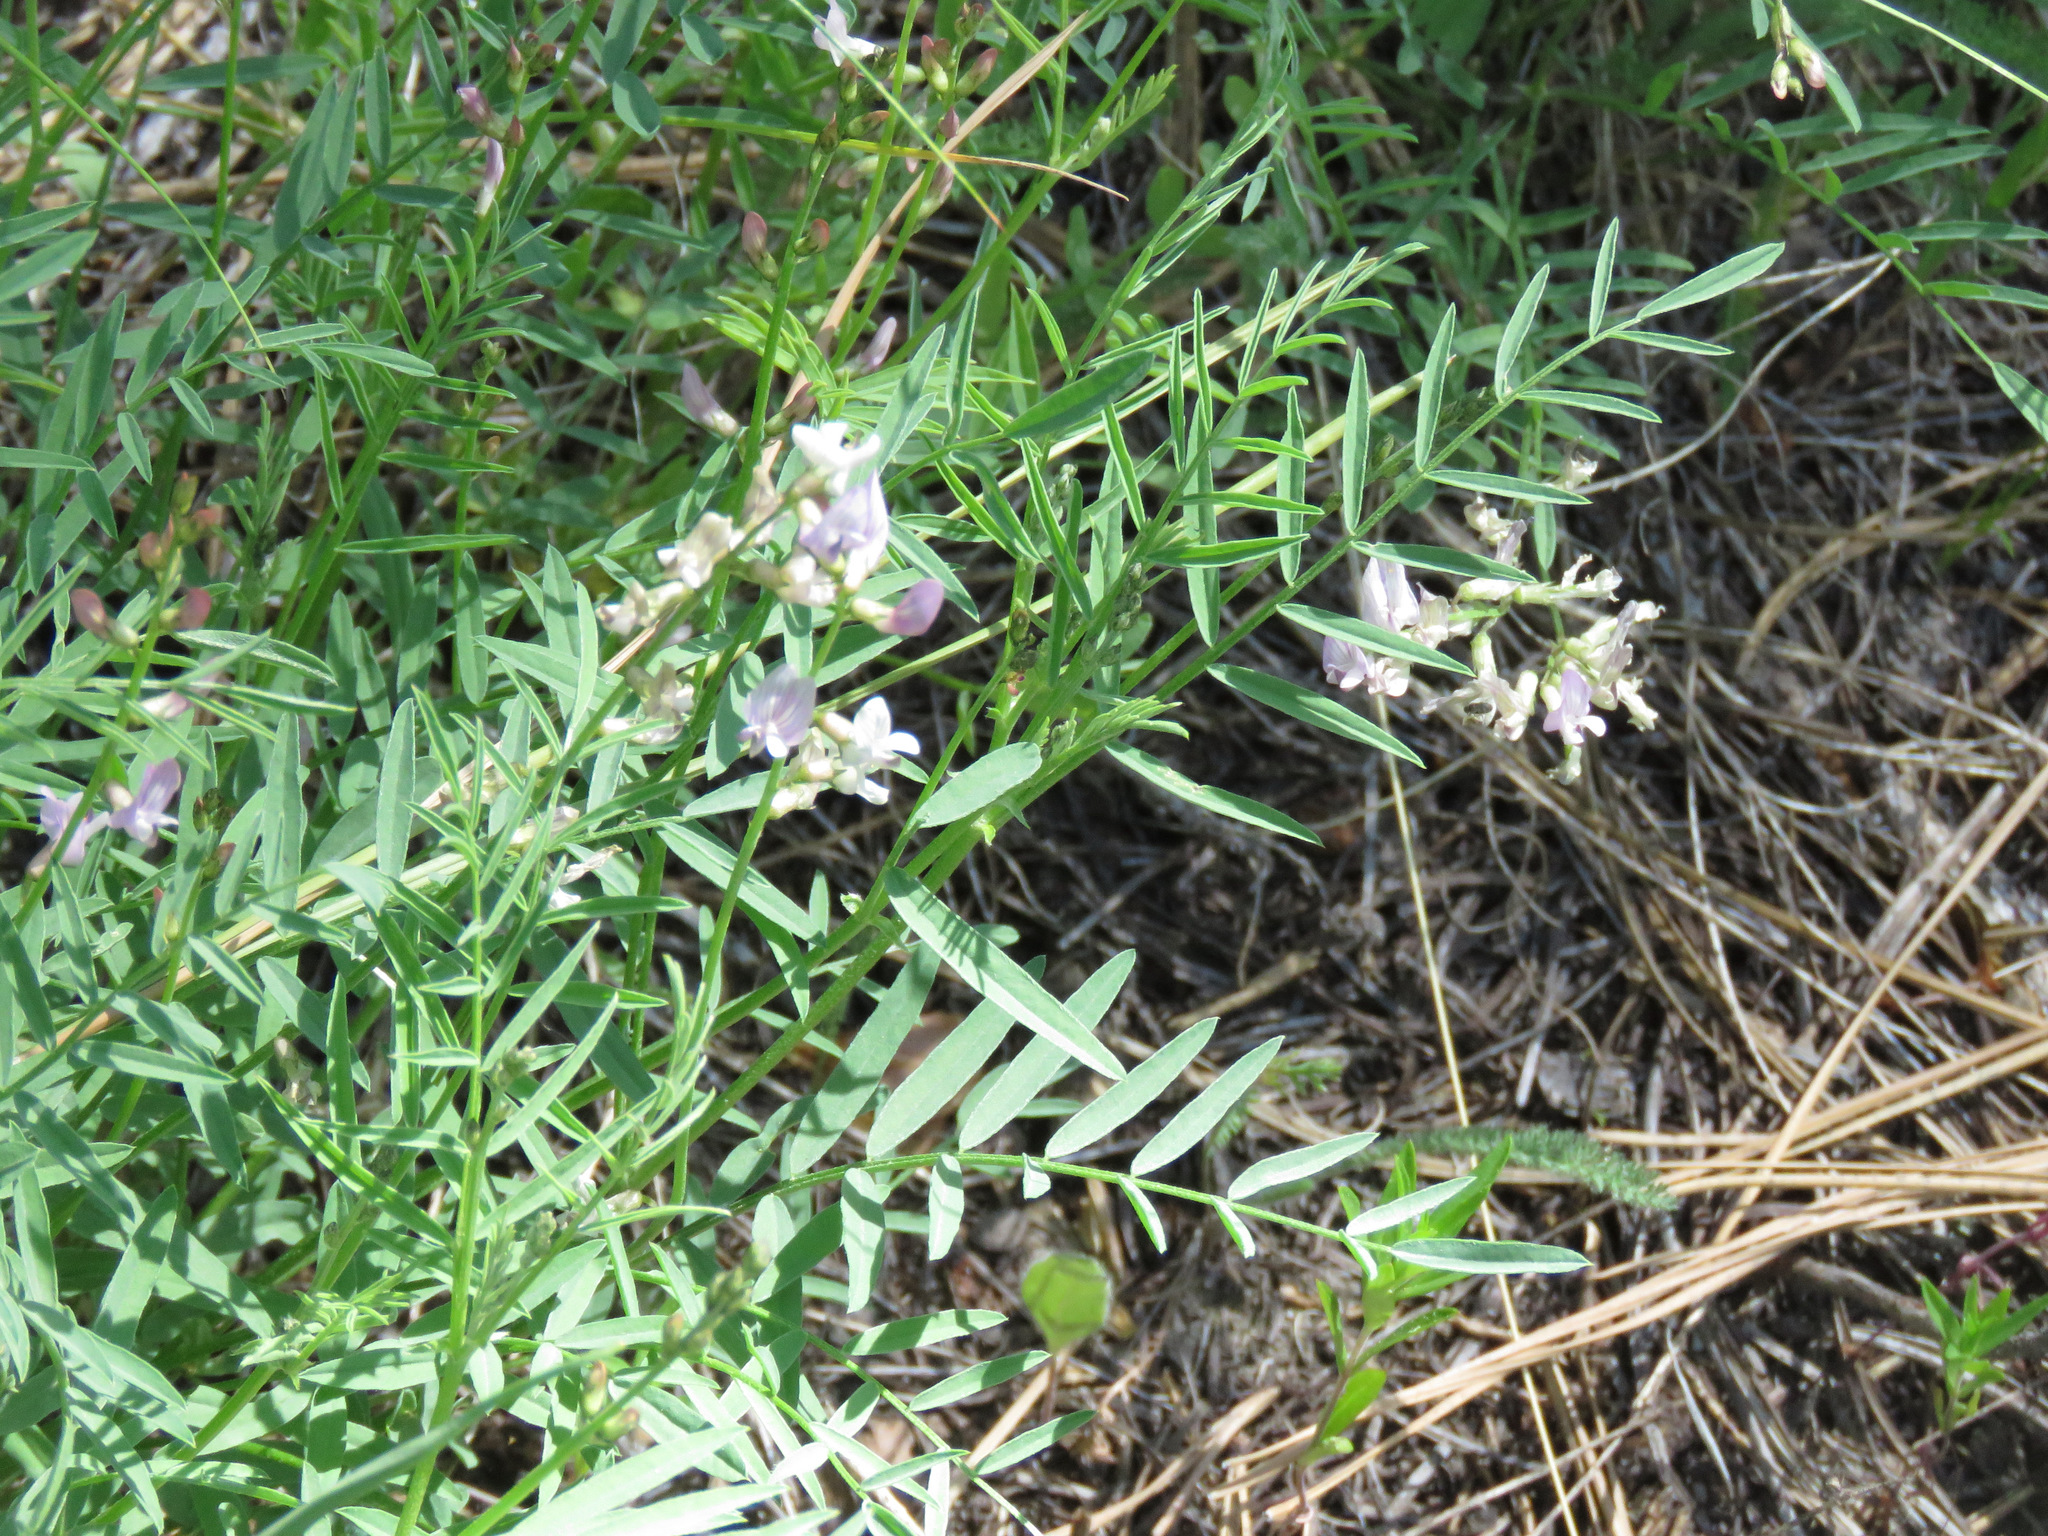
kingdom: Plantae
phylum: Tracheophyta
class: Magnoliopsida
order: Fabales
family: Fabaceae
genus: Astragalus
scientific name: Astragalus miser
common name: Timber milkvetch
